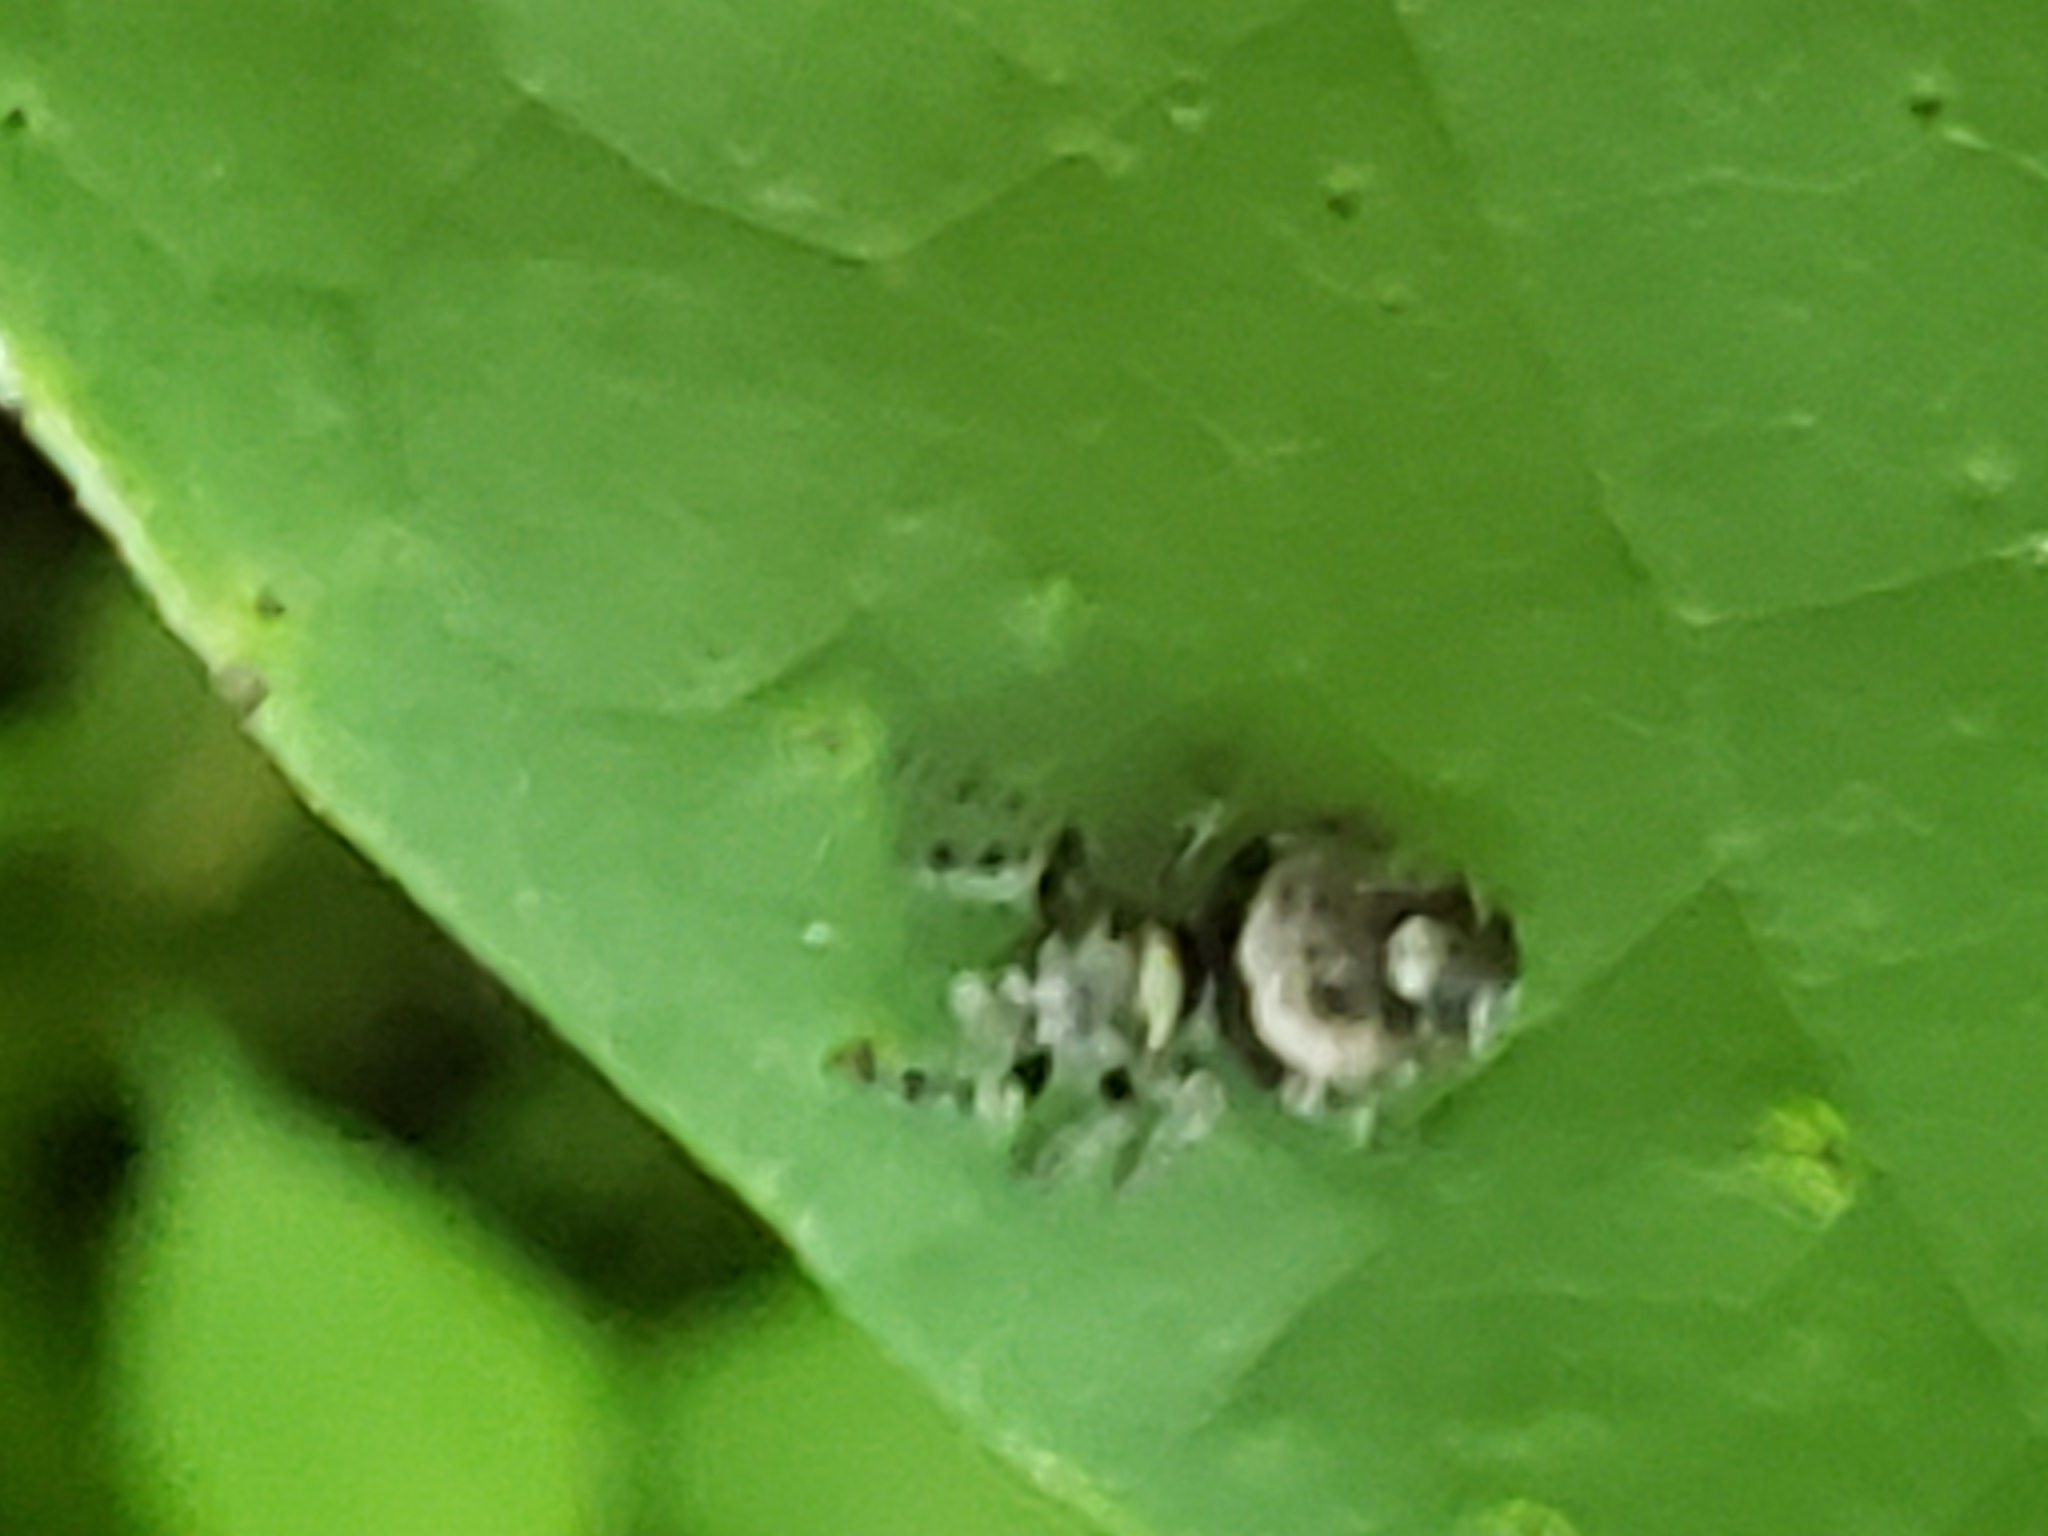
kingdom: Animalia
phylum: Arthropoda
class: Arachnida
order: Araneae
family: Salticidae
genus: Phidippus
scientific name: Phidippus putnami
